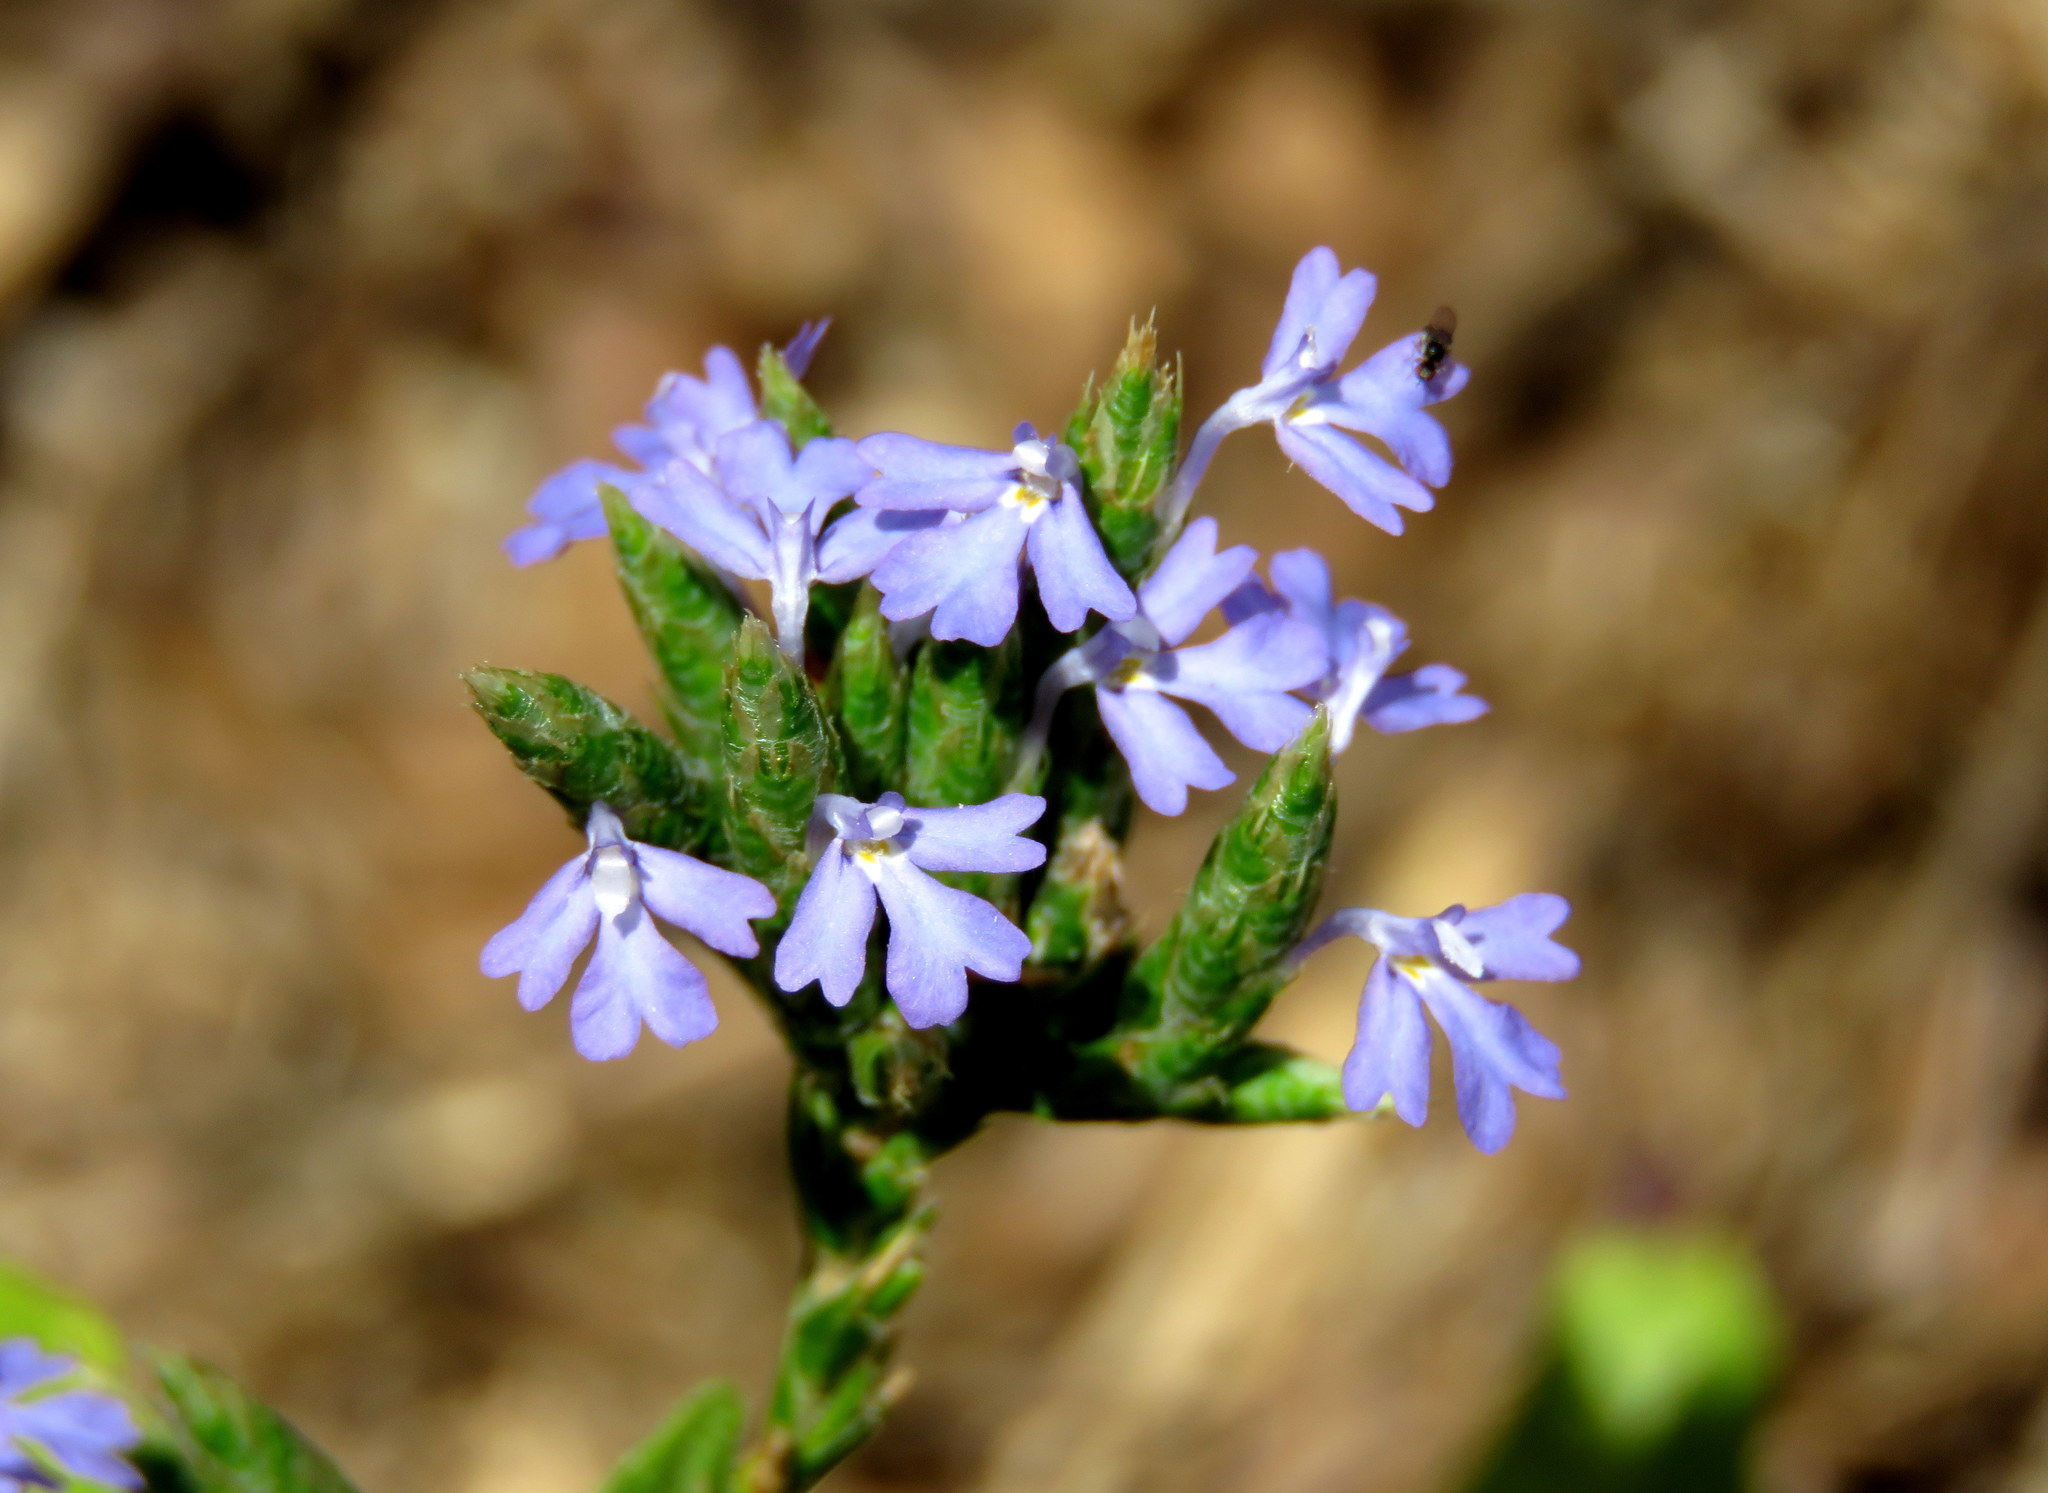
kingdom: Plantae
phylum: Tracheophyta
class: Magnoliopsida
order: Lamiales
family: Acanthaceae
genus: Elytraria
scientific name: Elytraria imbricata
